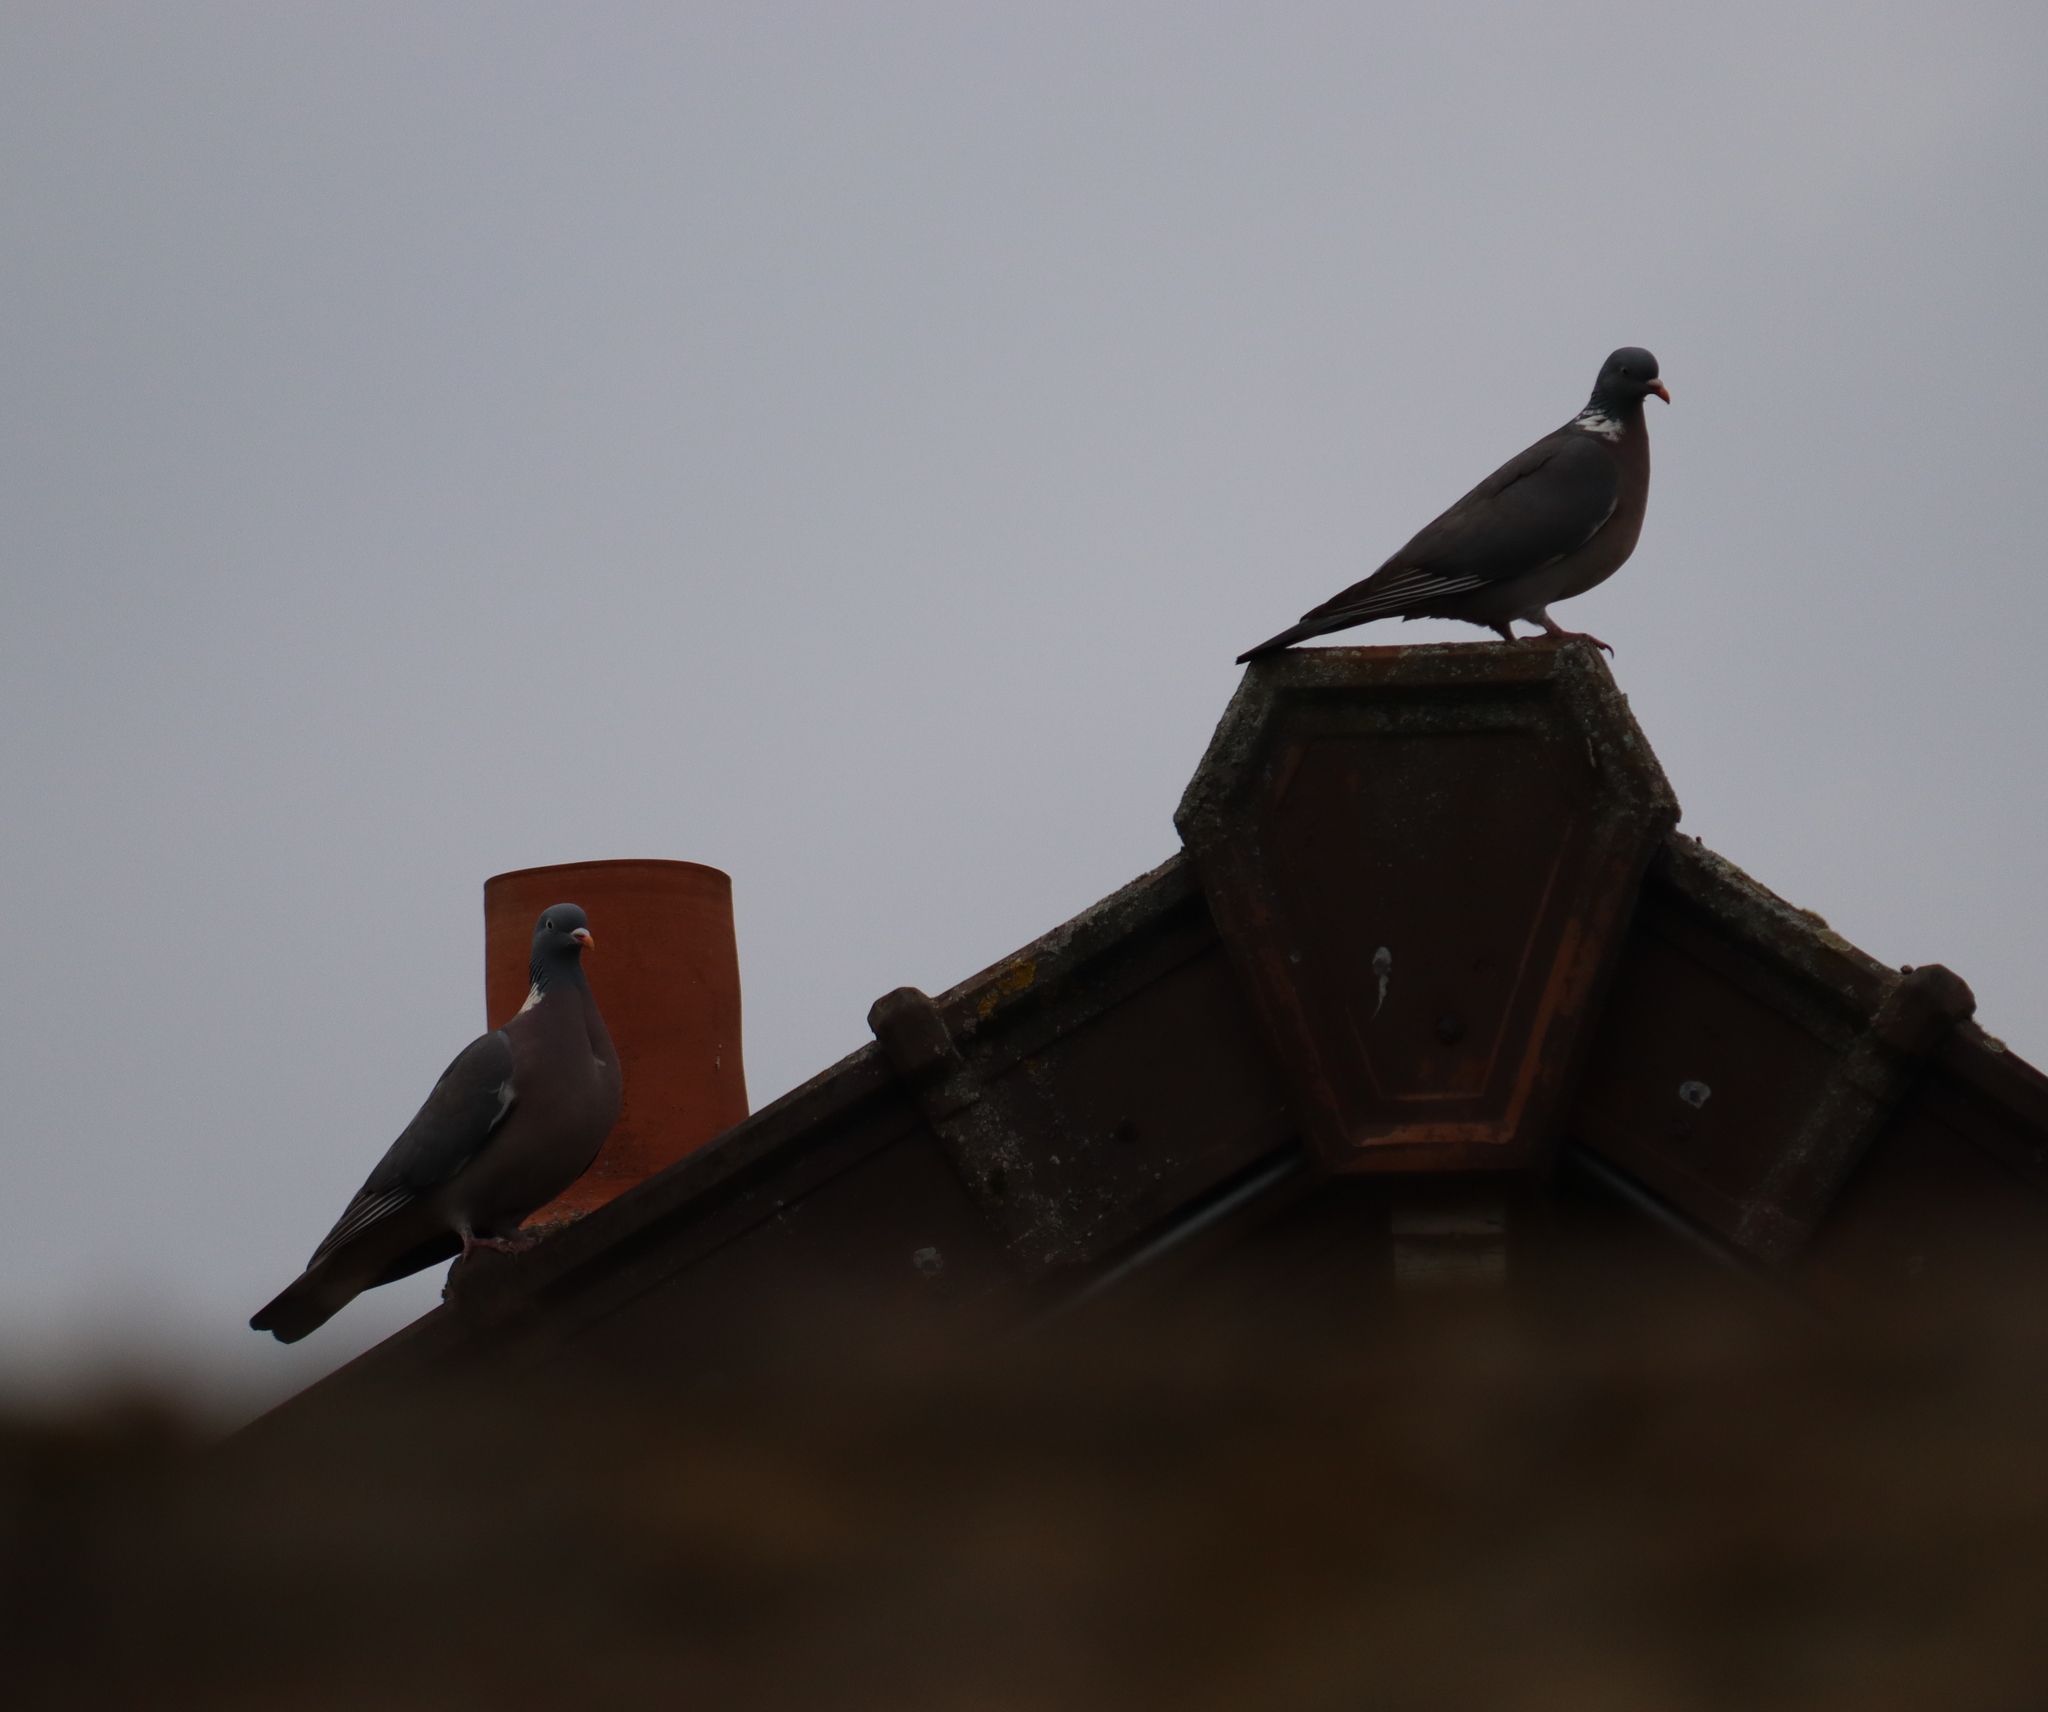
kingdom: Animalia
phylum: Chordata
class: Aves
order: Columbiformes
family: Columbidae
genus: Columba
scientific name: Columba palumbus
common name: Common wood pigeon
